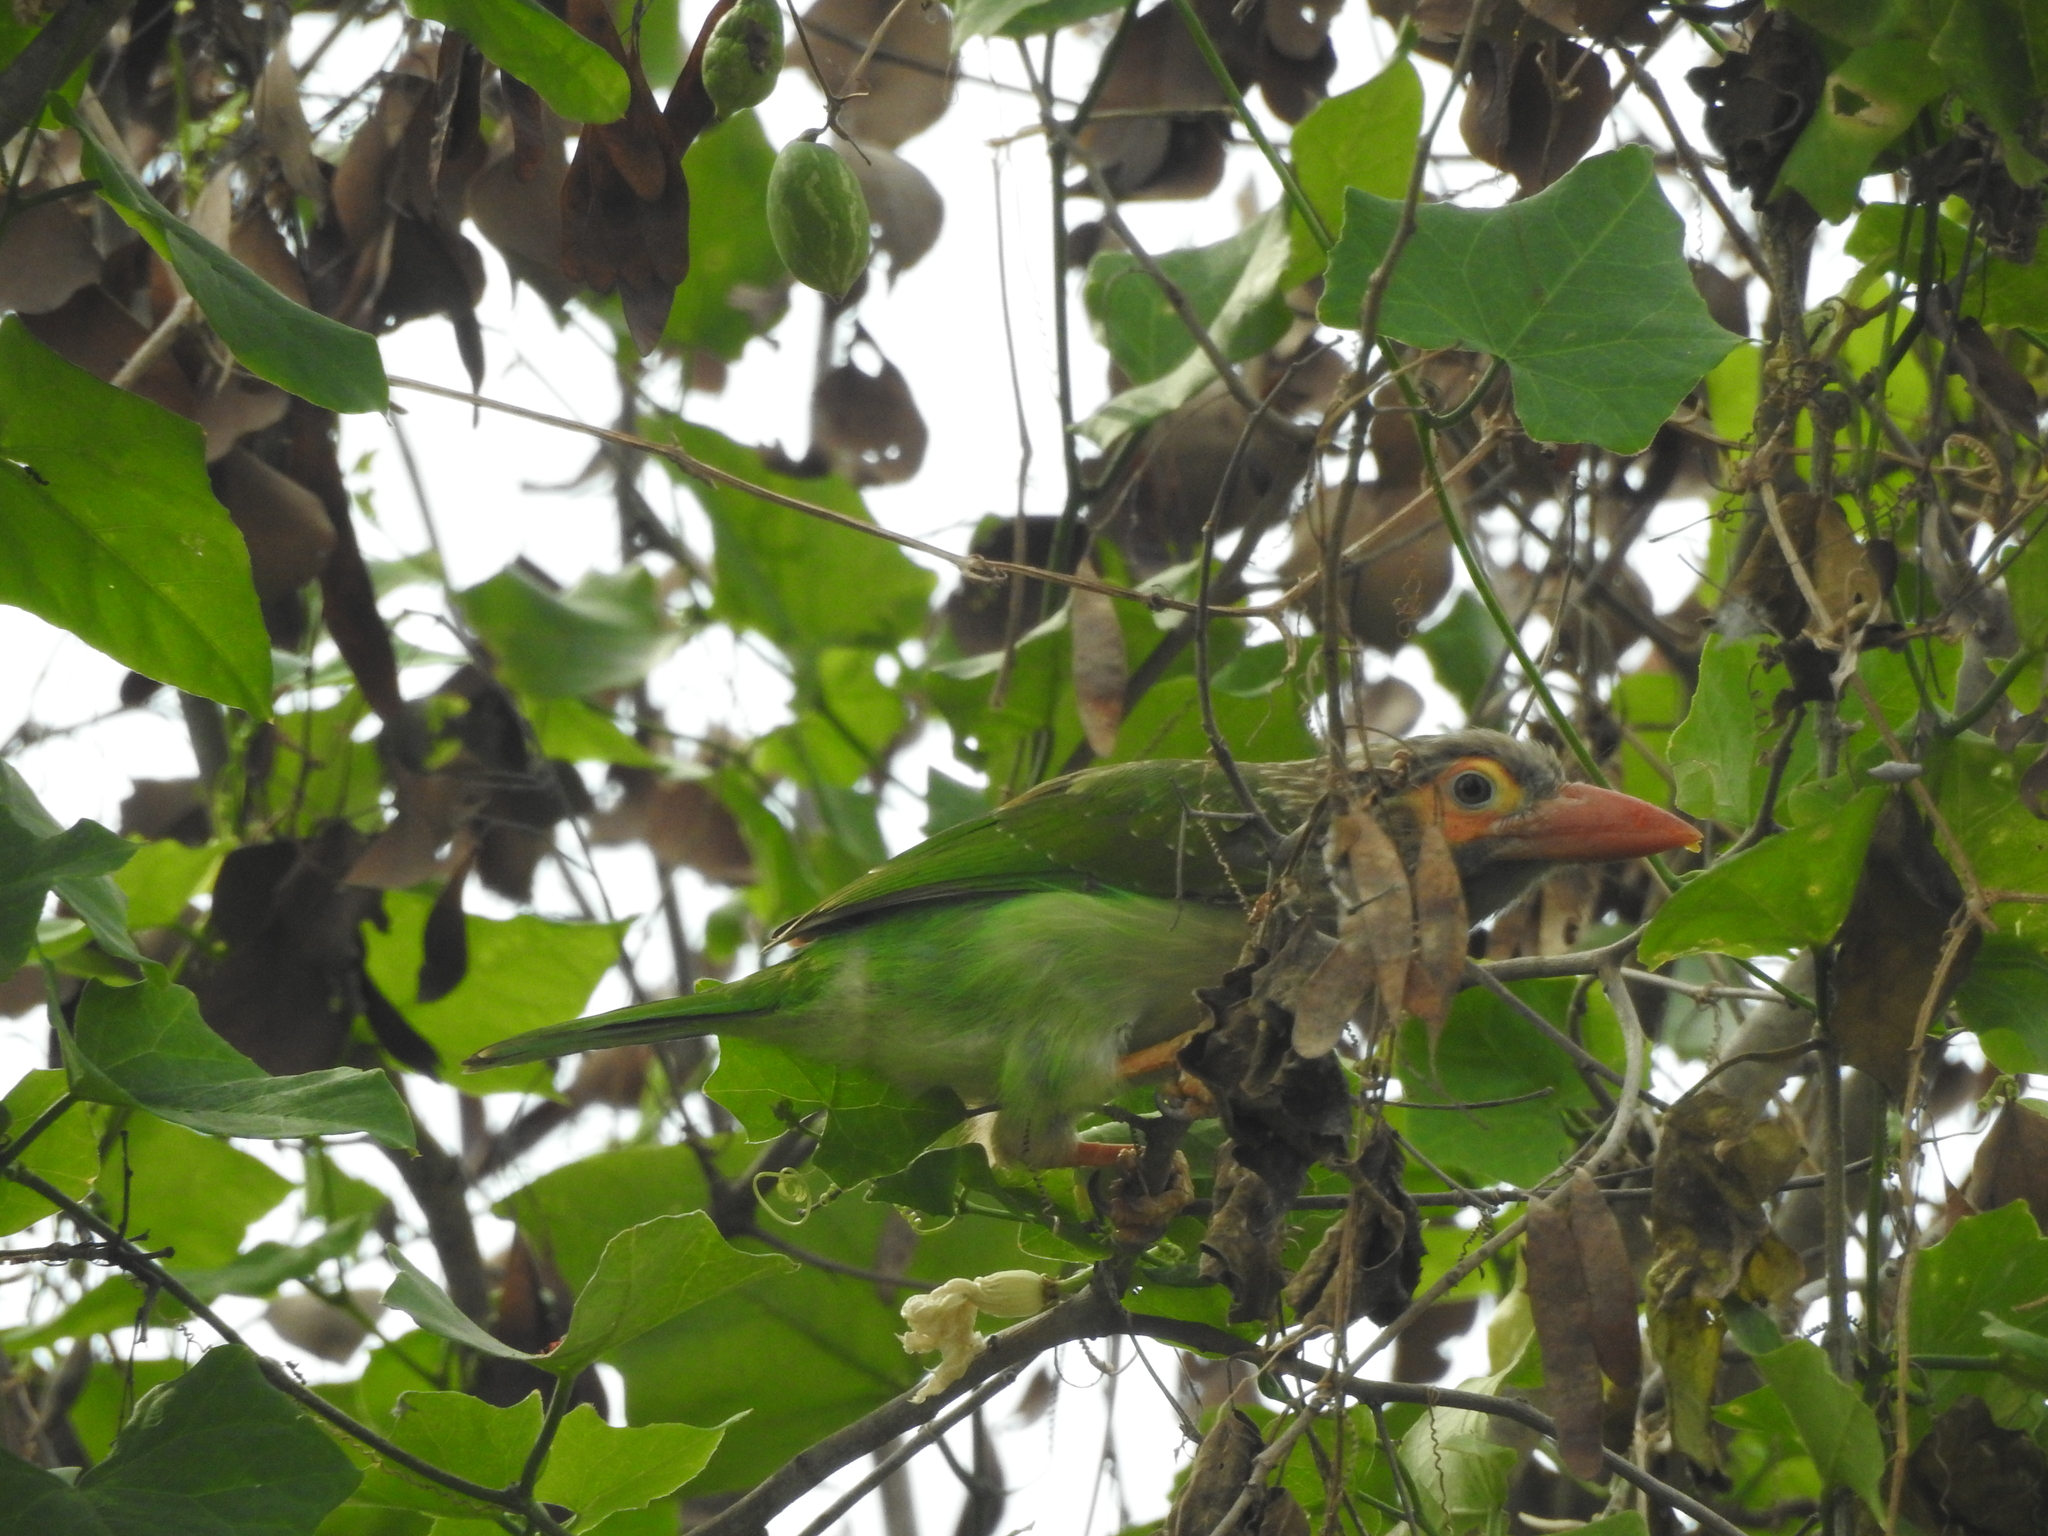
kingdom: Animalia
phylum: Chordata
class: Aves
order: Piciformes
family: Megalaimidae
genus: Psilopogon
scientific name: Psilopogon zeylanicus
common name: Brown-headed barbet
